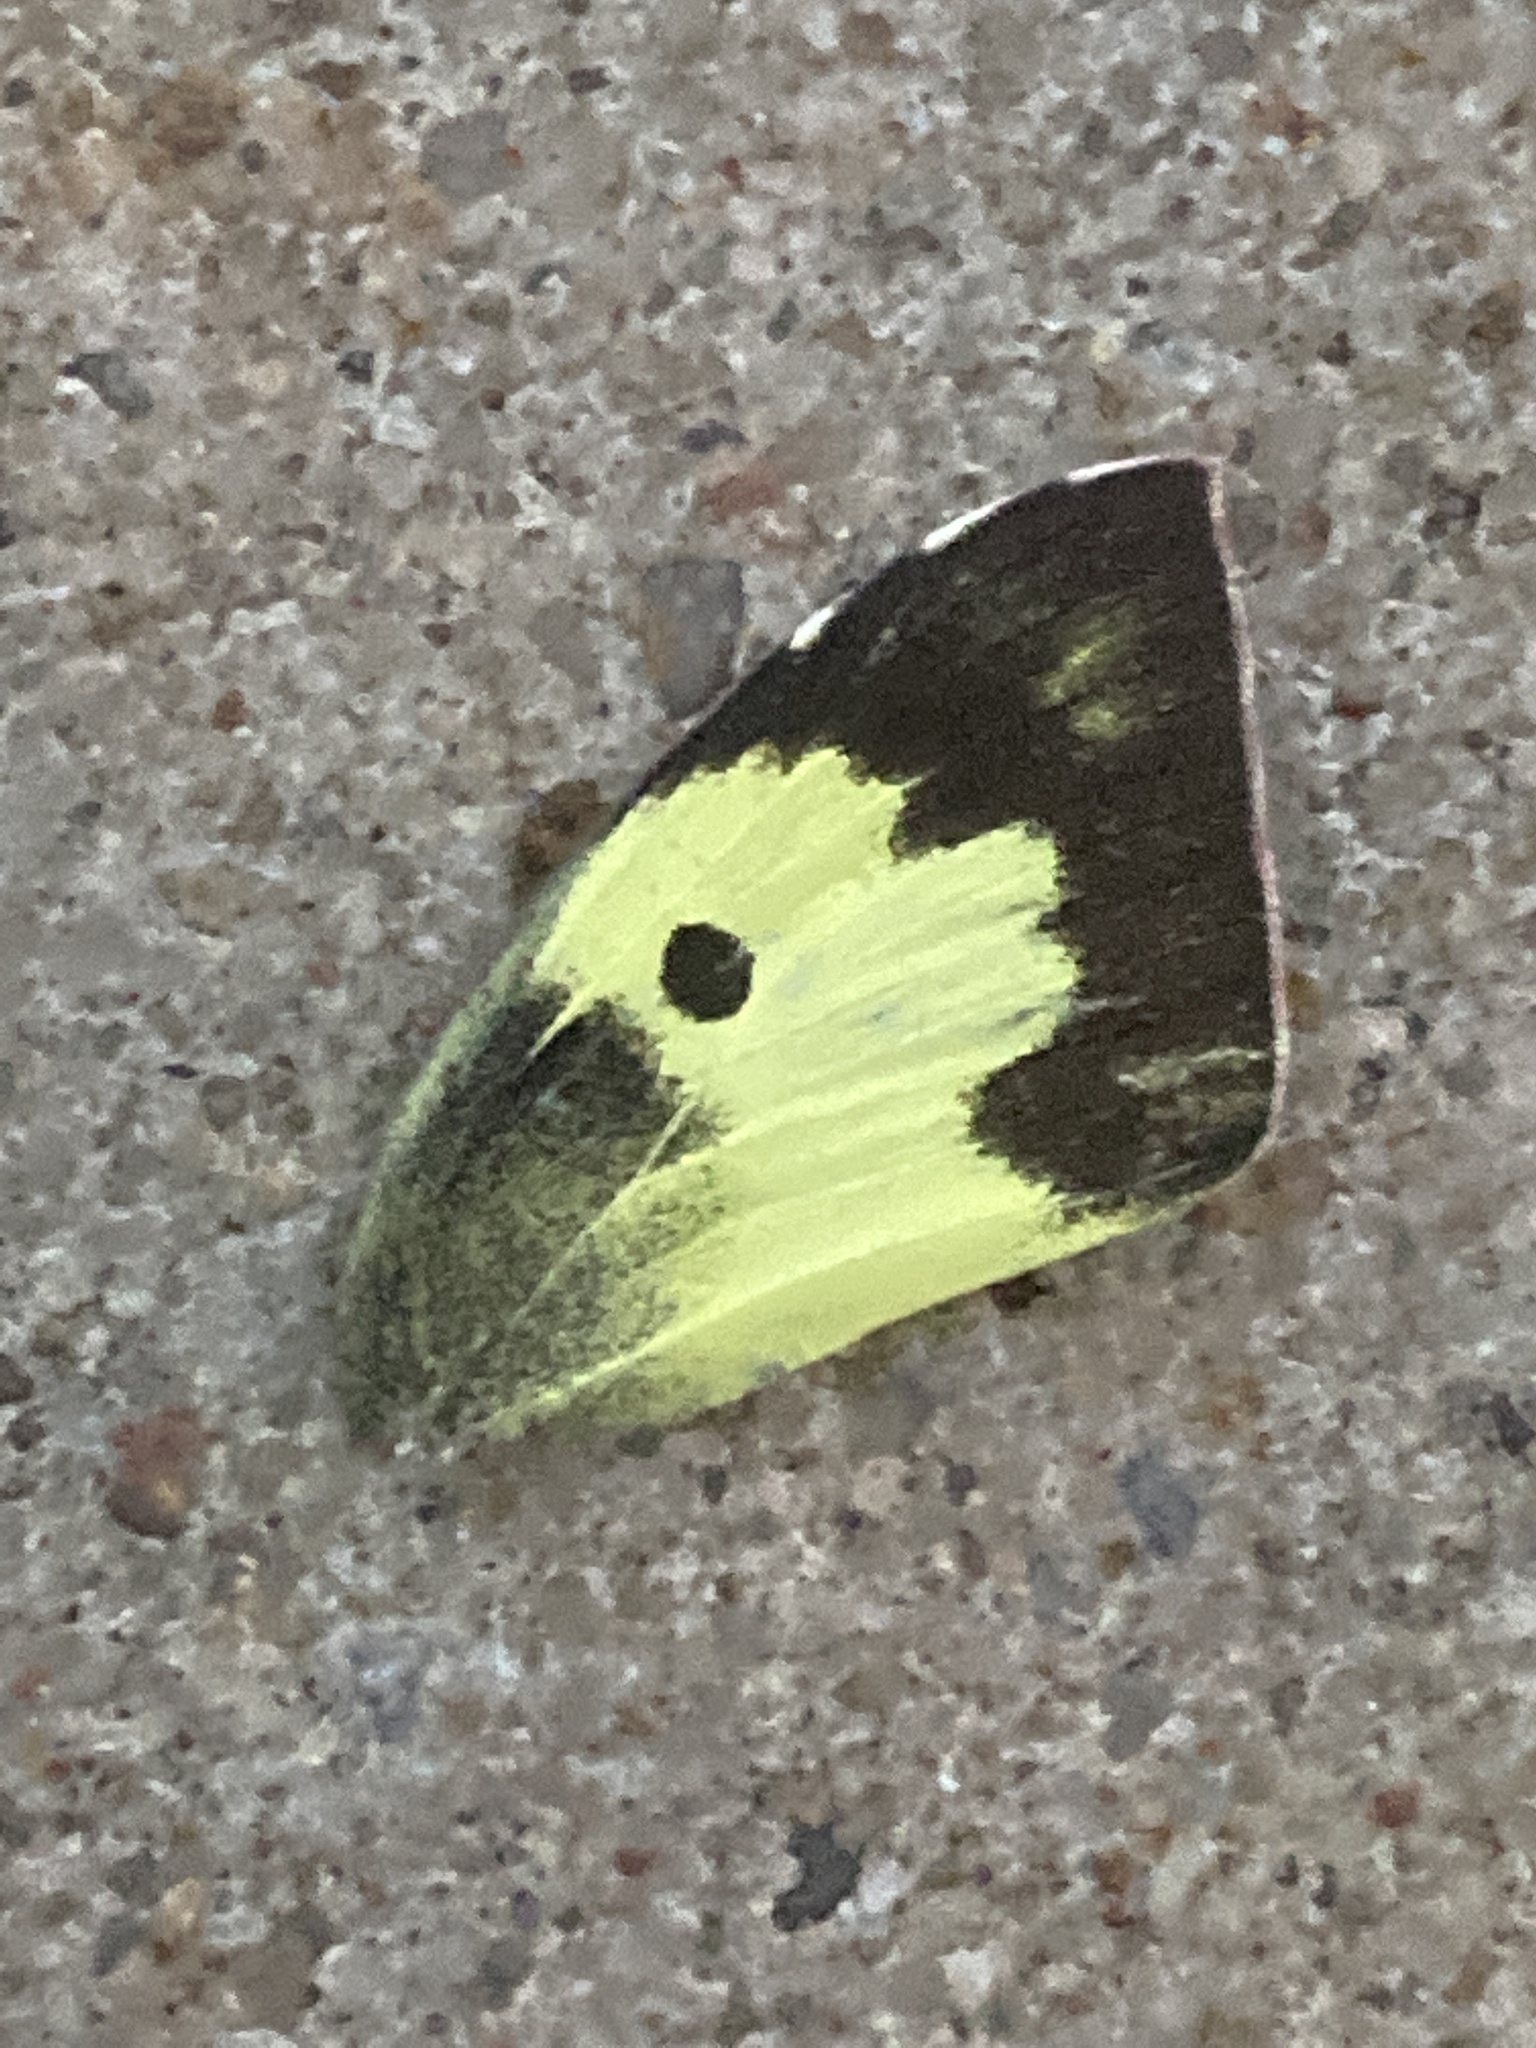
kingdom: Animalia
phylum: Arthropoda
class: Insecta
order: Lepidoptera
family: Pieridae
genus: Zerene
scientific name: Zerene cesonia
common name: Southern dogface
